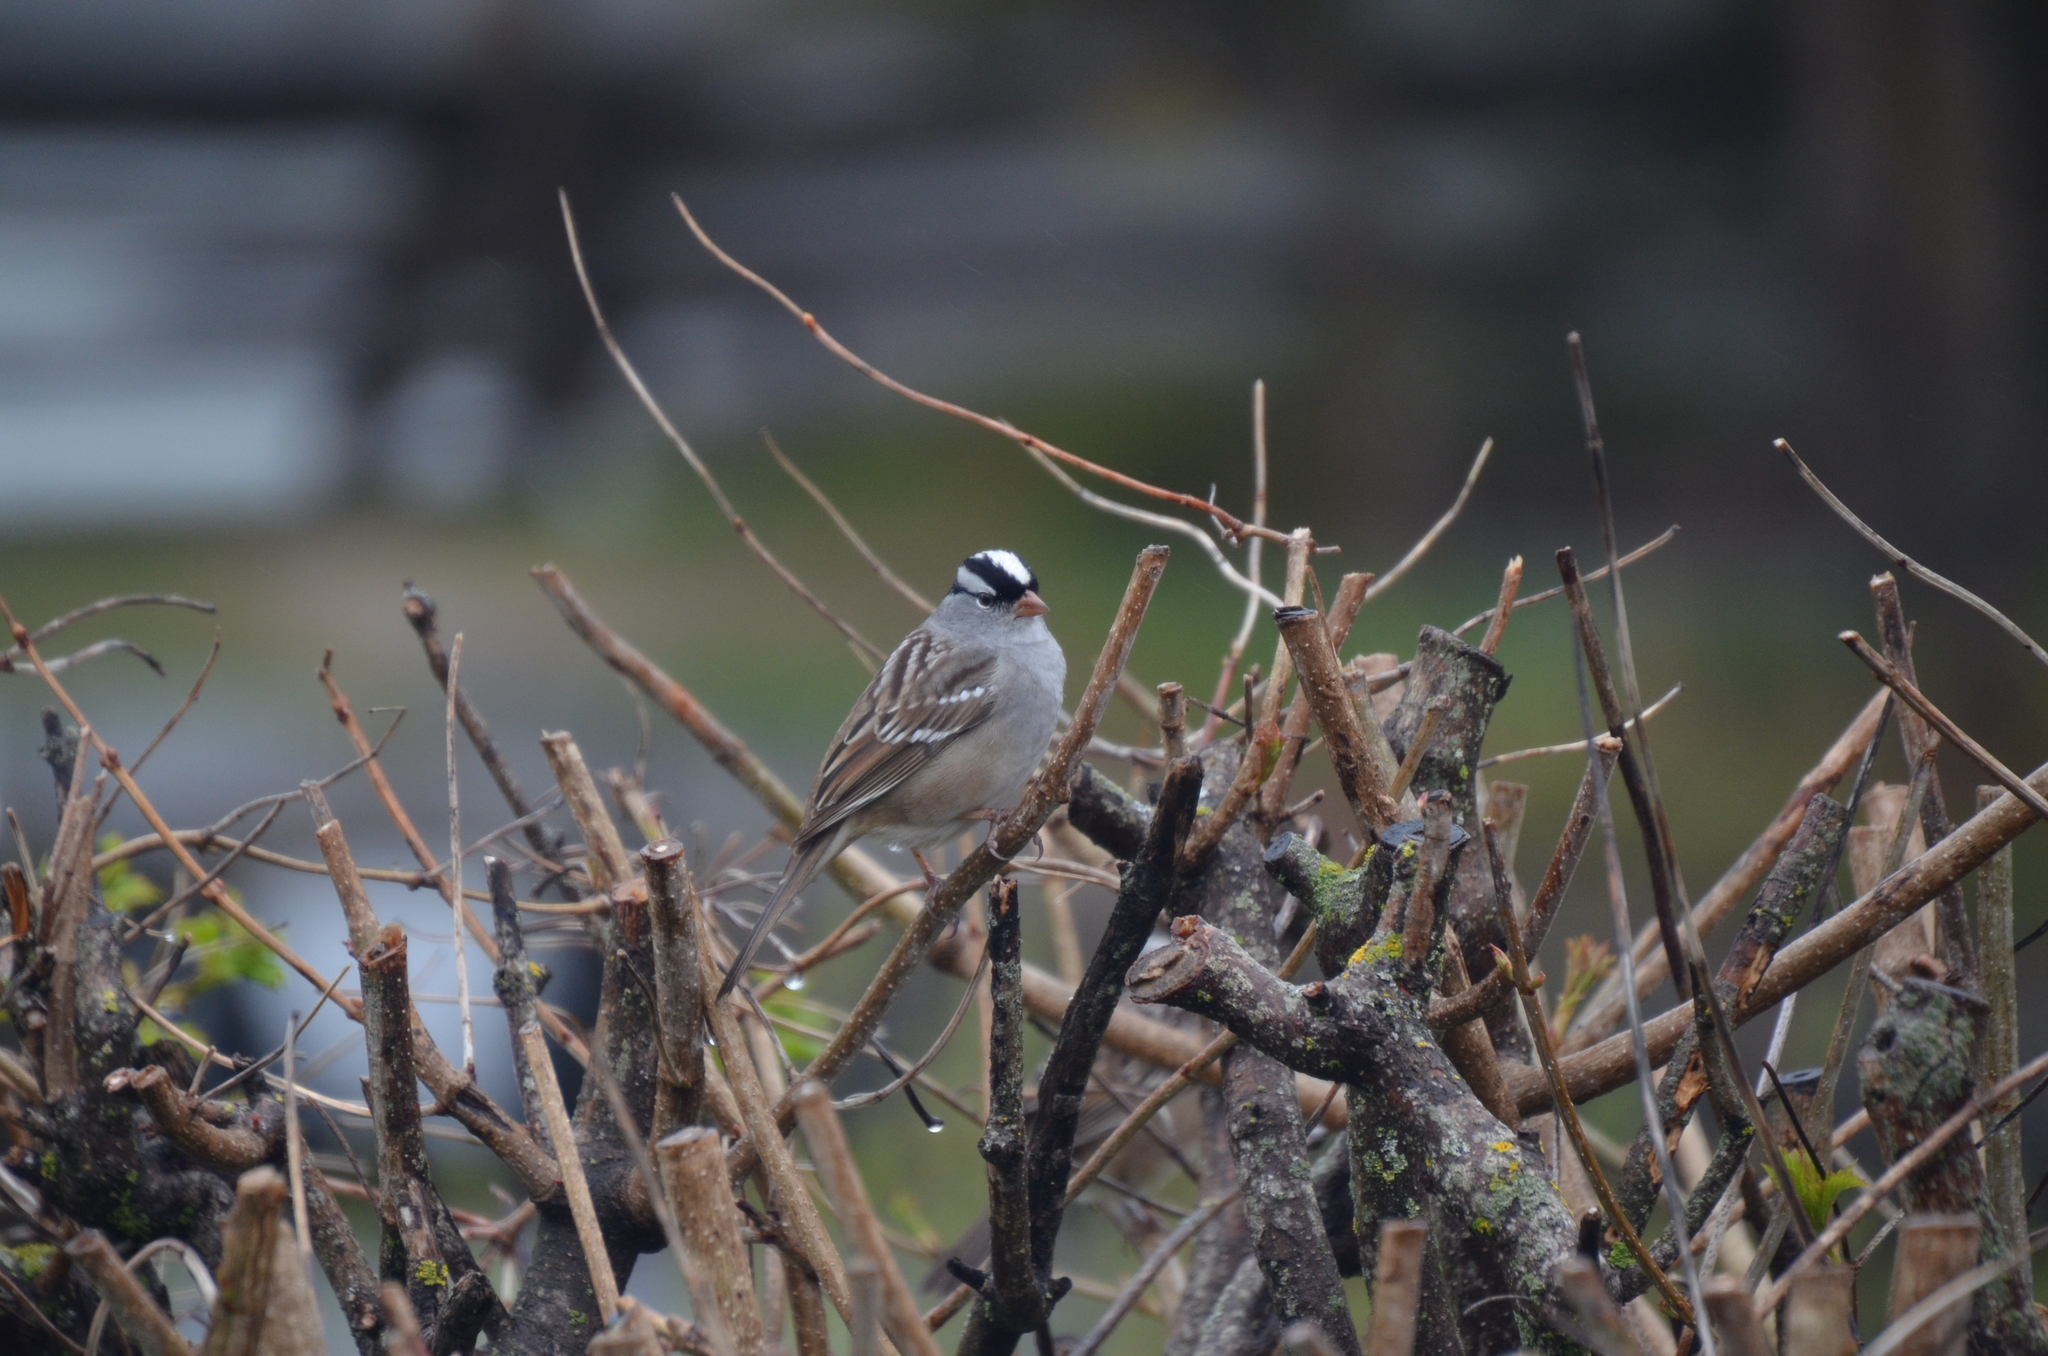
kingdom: Animalia
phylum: Chordata
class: Aves
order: Passeriformes
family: Passerellidae
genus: Zonotrichia
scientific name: Zonotrichia leucophrys
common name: White-crowned sparrow
